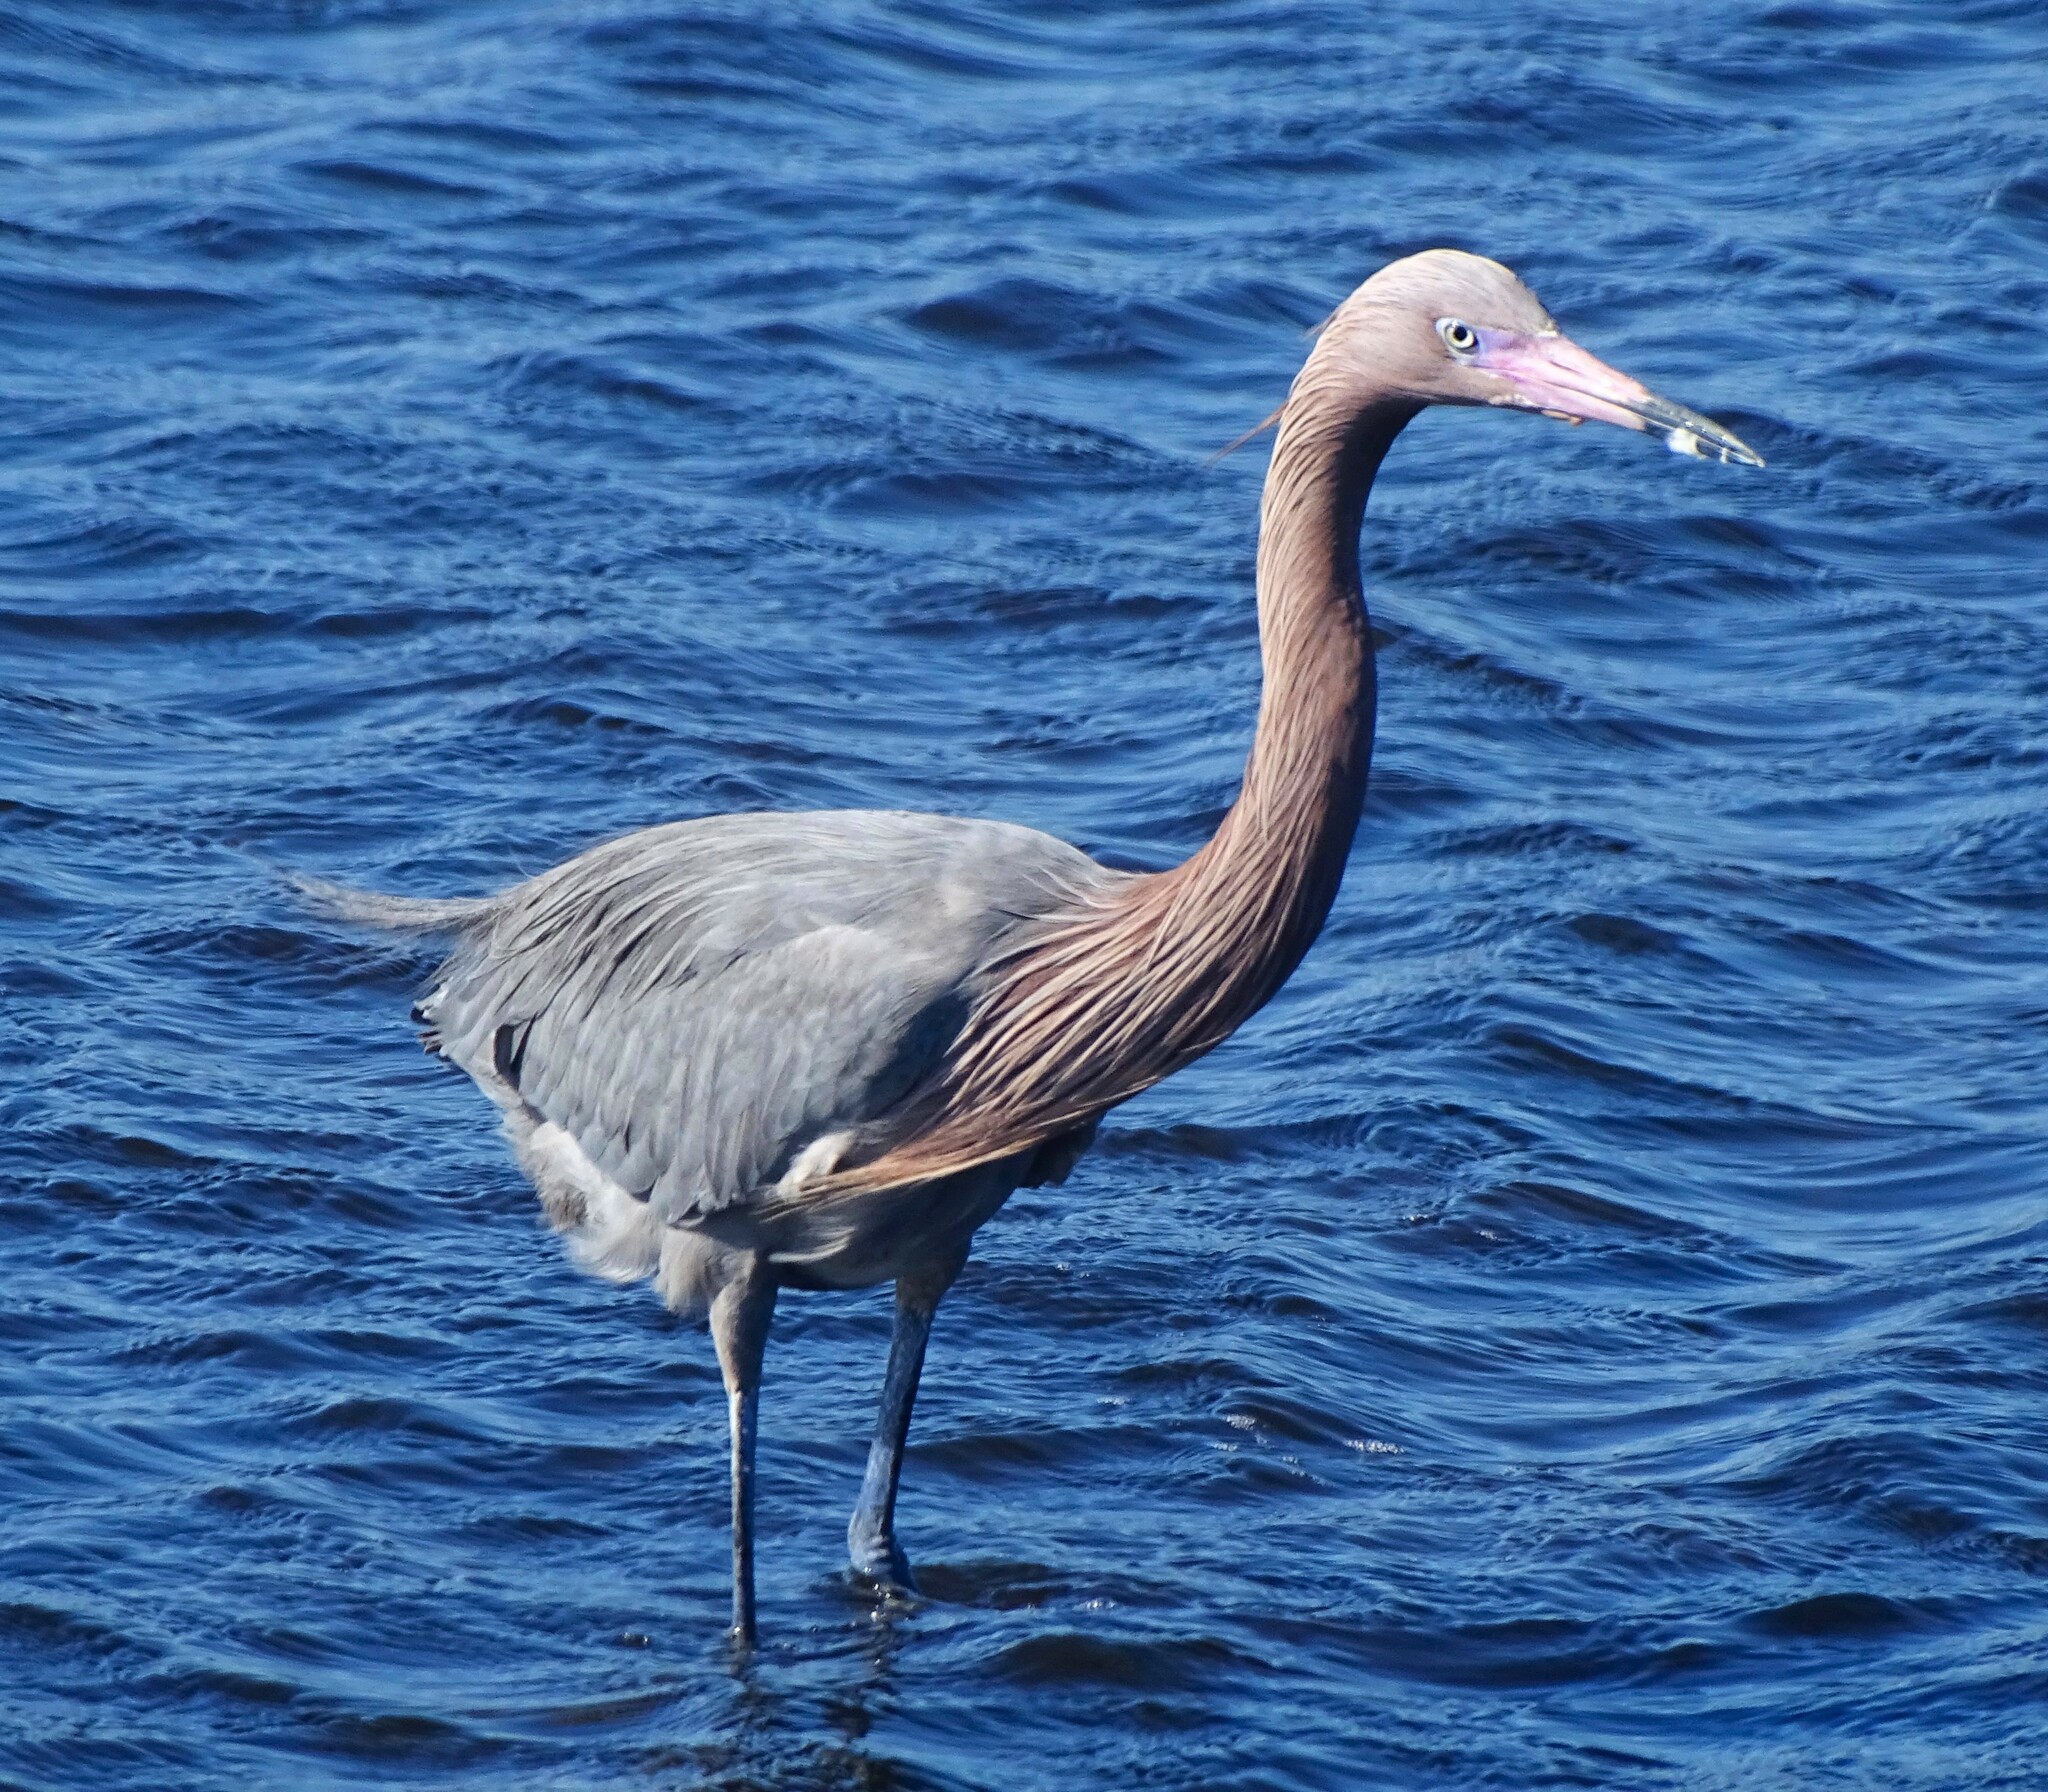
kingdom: Animalia
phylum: Chordata
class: Aves
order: Pelecaniformes
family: Ardeidae
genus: Egretta
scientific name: Egretta rufescens
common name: Reddish egret
